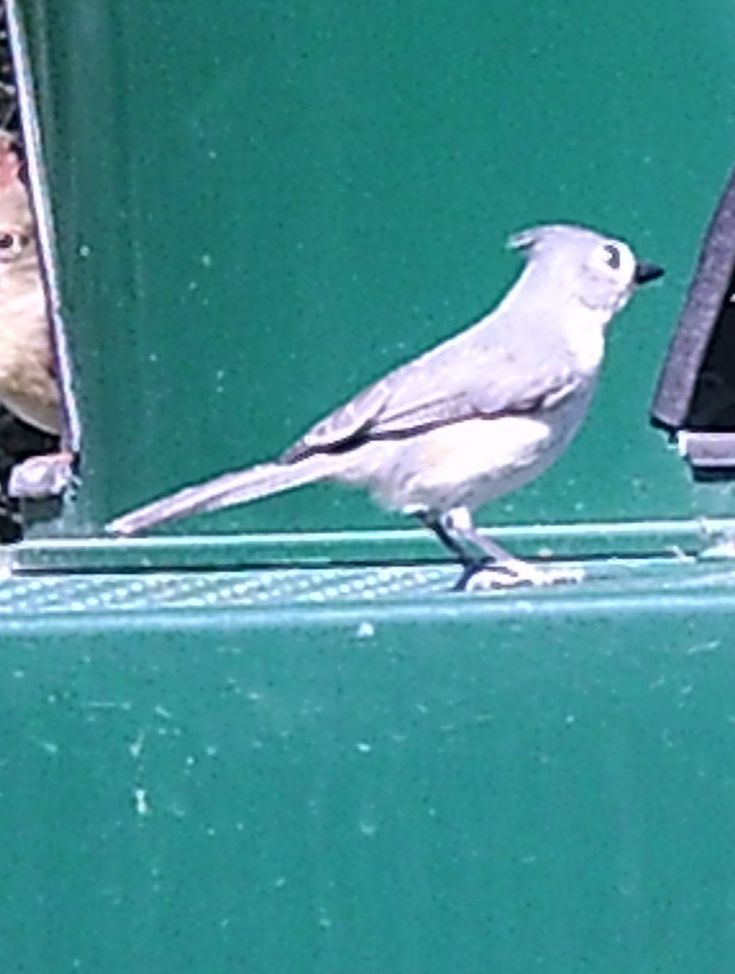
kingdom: Animalia
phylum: Chordata
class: Aves
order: Passeriformes
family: Paridae
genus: Baeolophus
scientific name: Baeolophus bicolor
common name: Tufted titmouse
